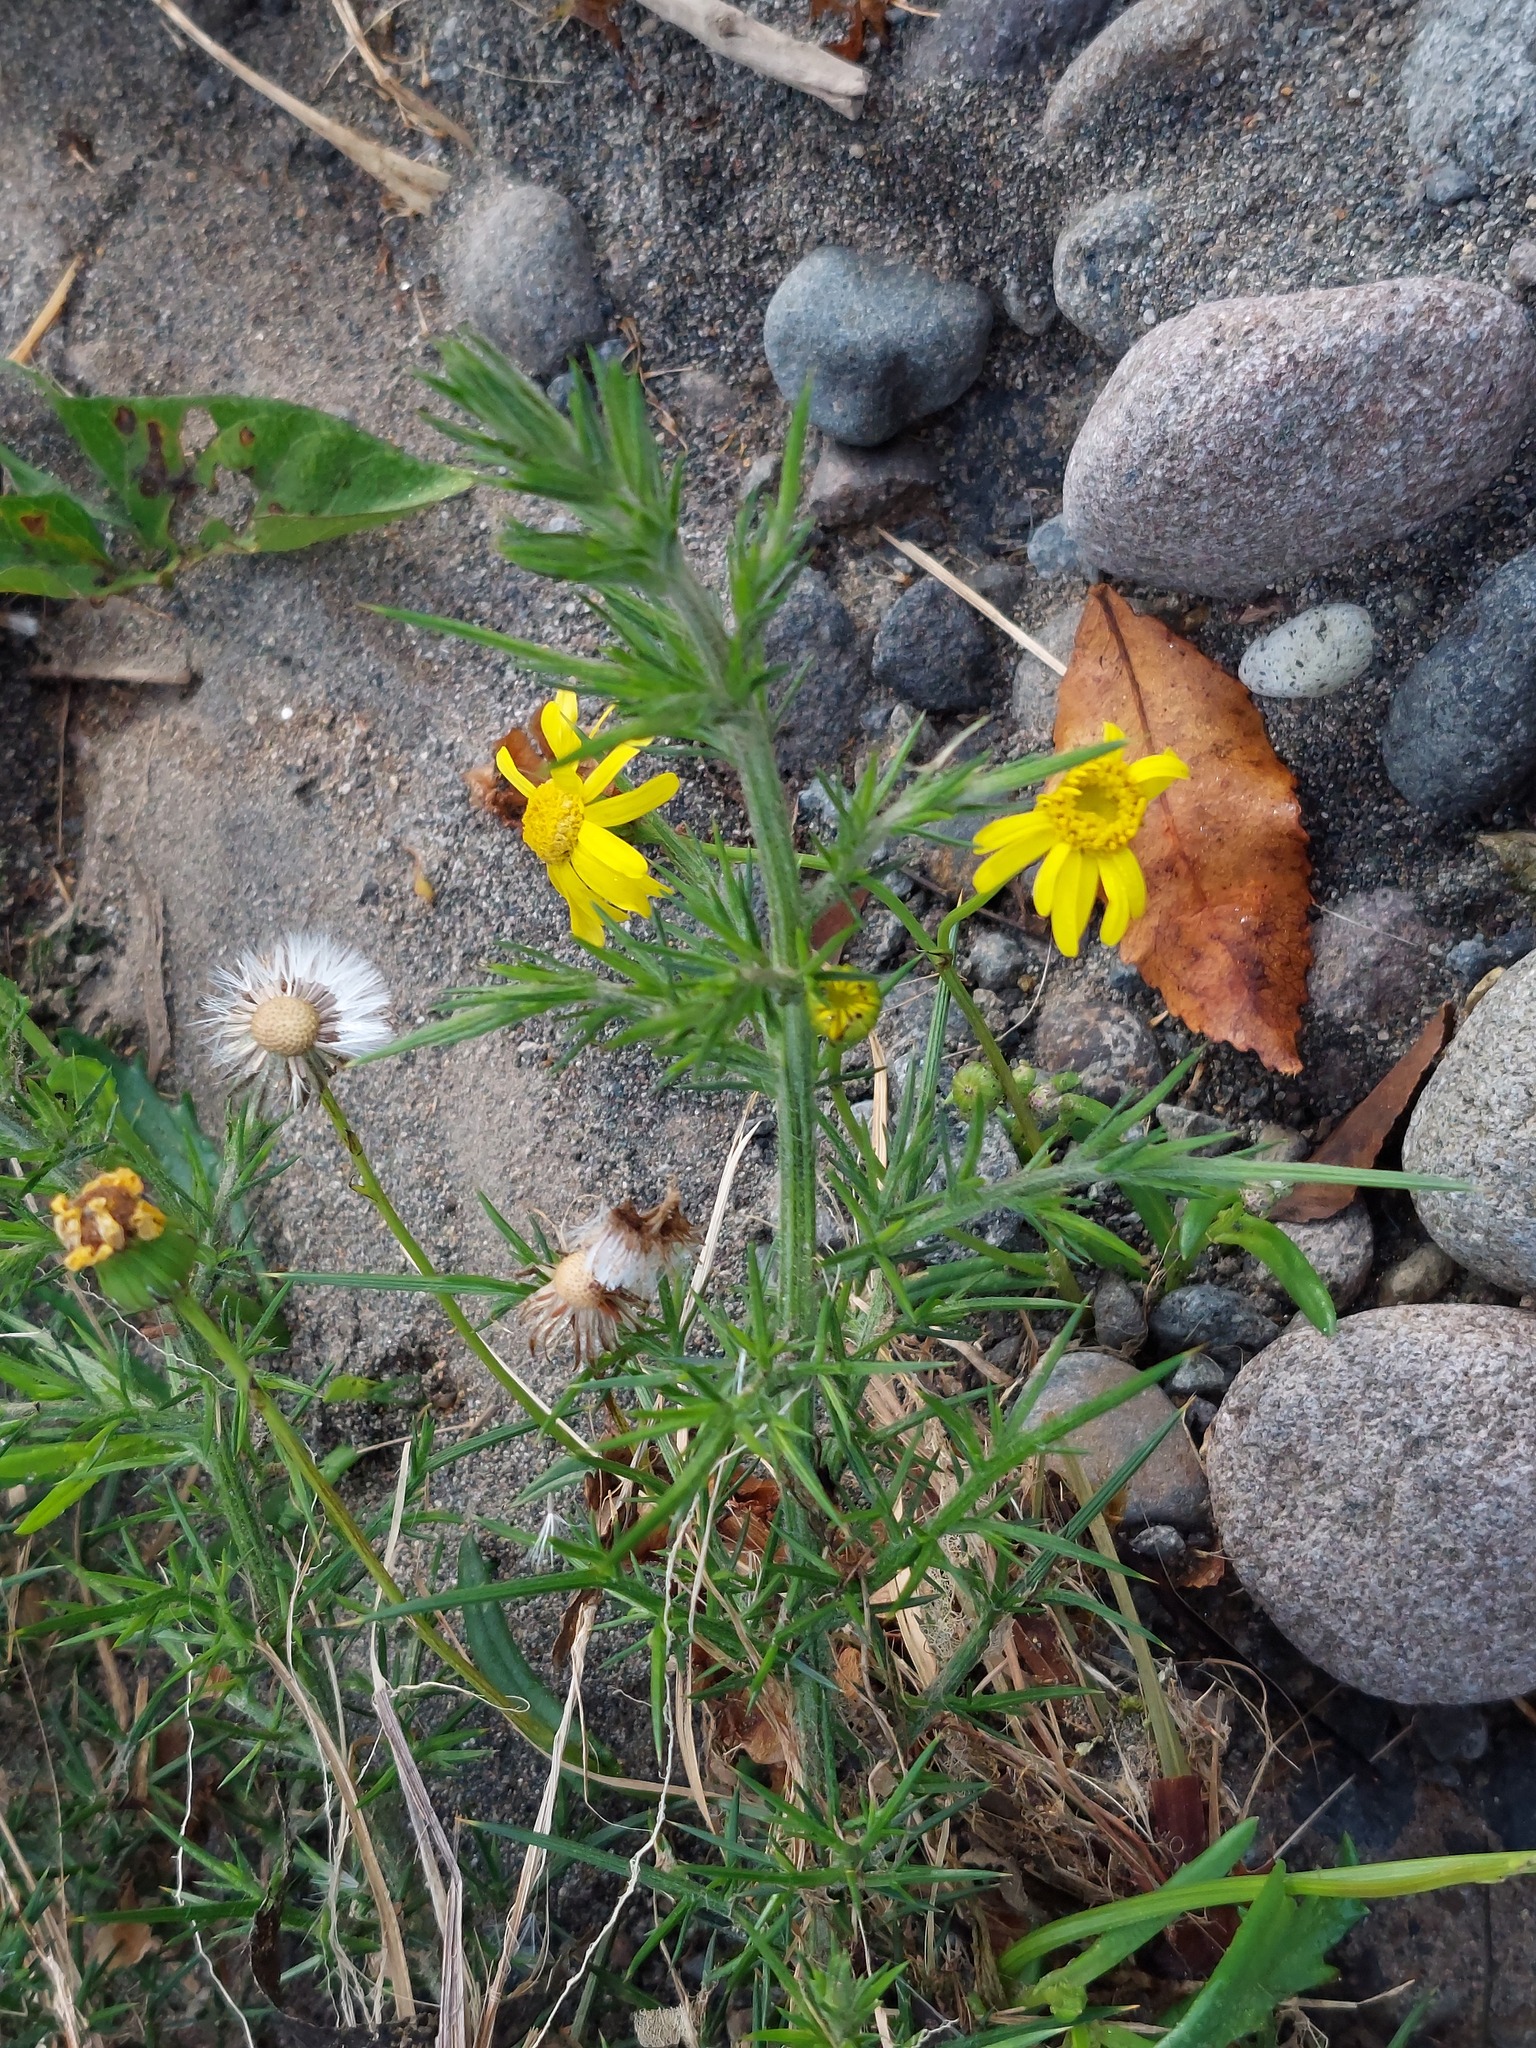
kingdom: Plantae
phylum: Tracheophyta
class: Magnoliopsida
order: Asterales
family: Asteraceae
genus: Senecio
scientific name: Senecio skirrhodon
